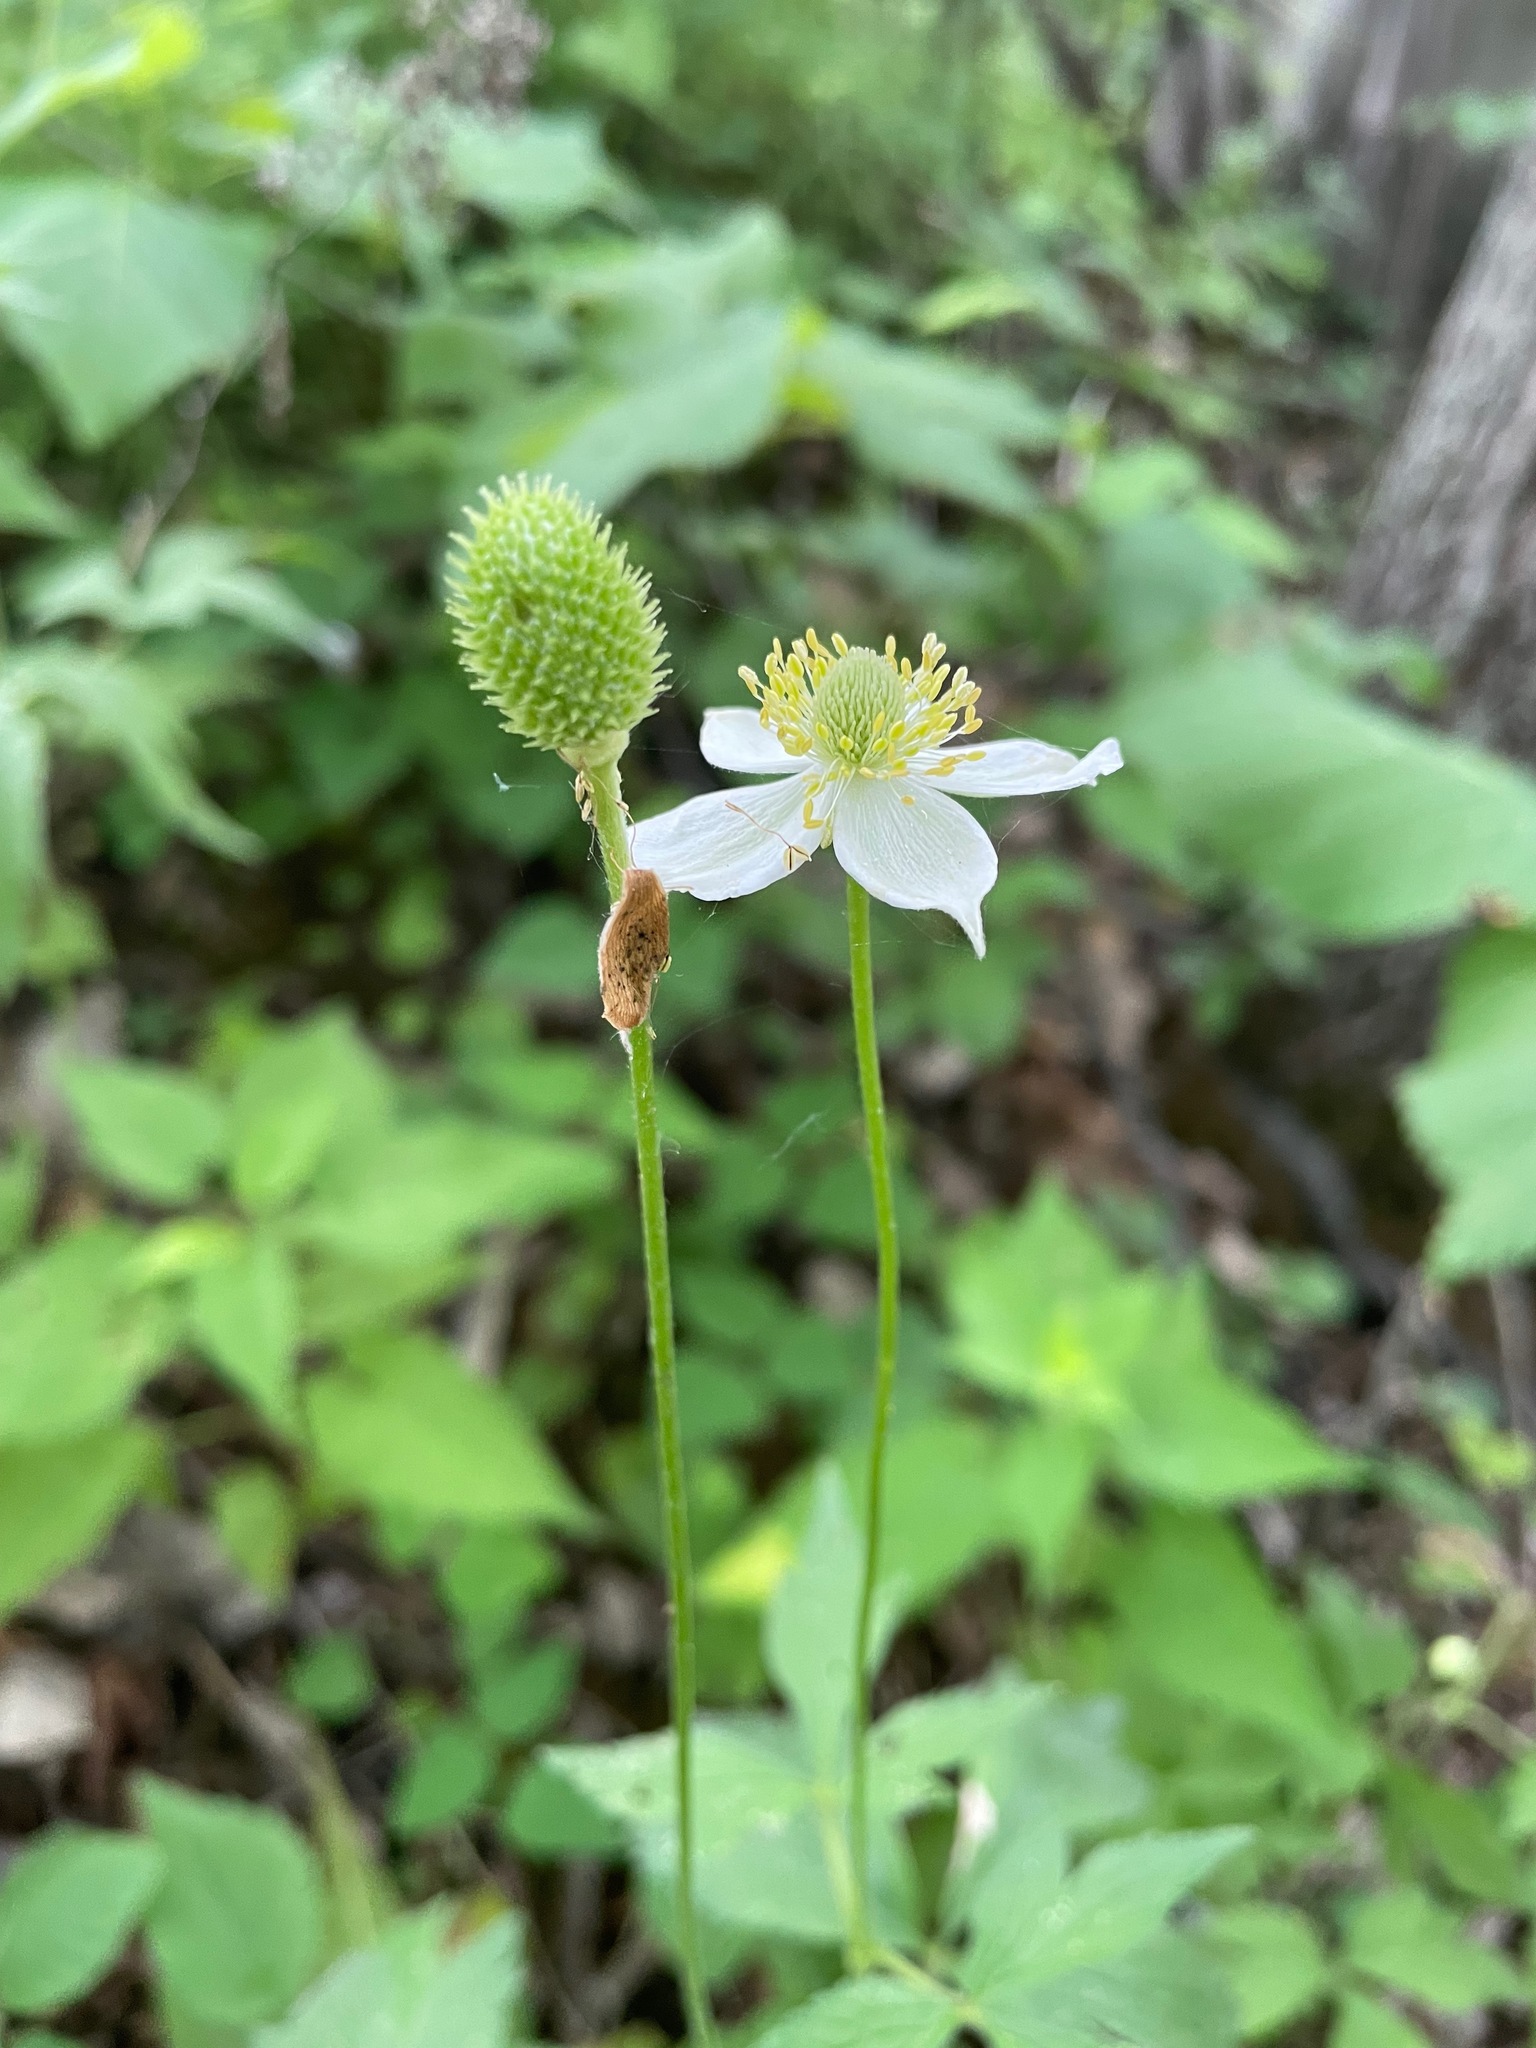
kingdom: Plantae
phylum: Tracheophyta
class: Magnoliopsida
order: Ranunculales
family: Ranunculaceae
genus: Anemone
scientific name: Anemone virginiana
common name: Tall anemone
